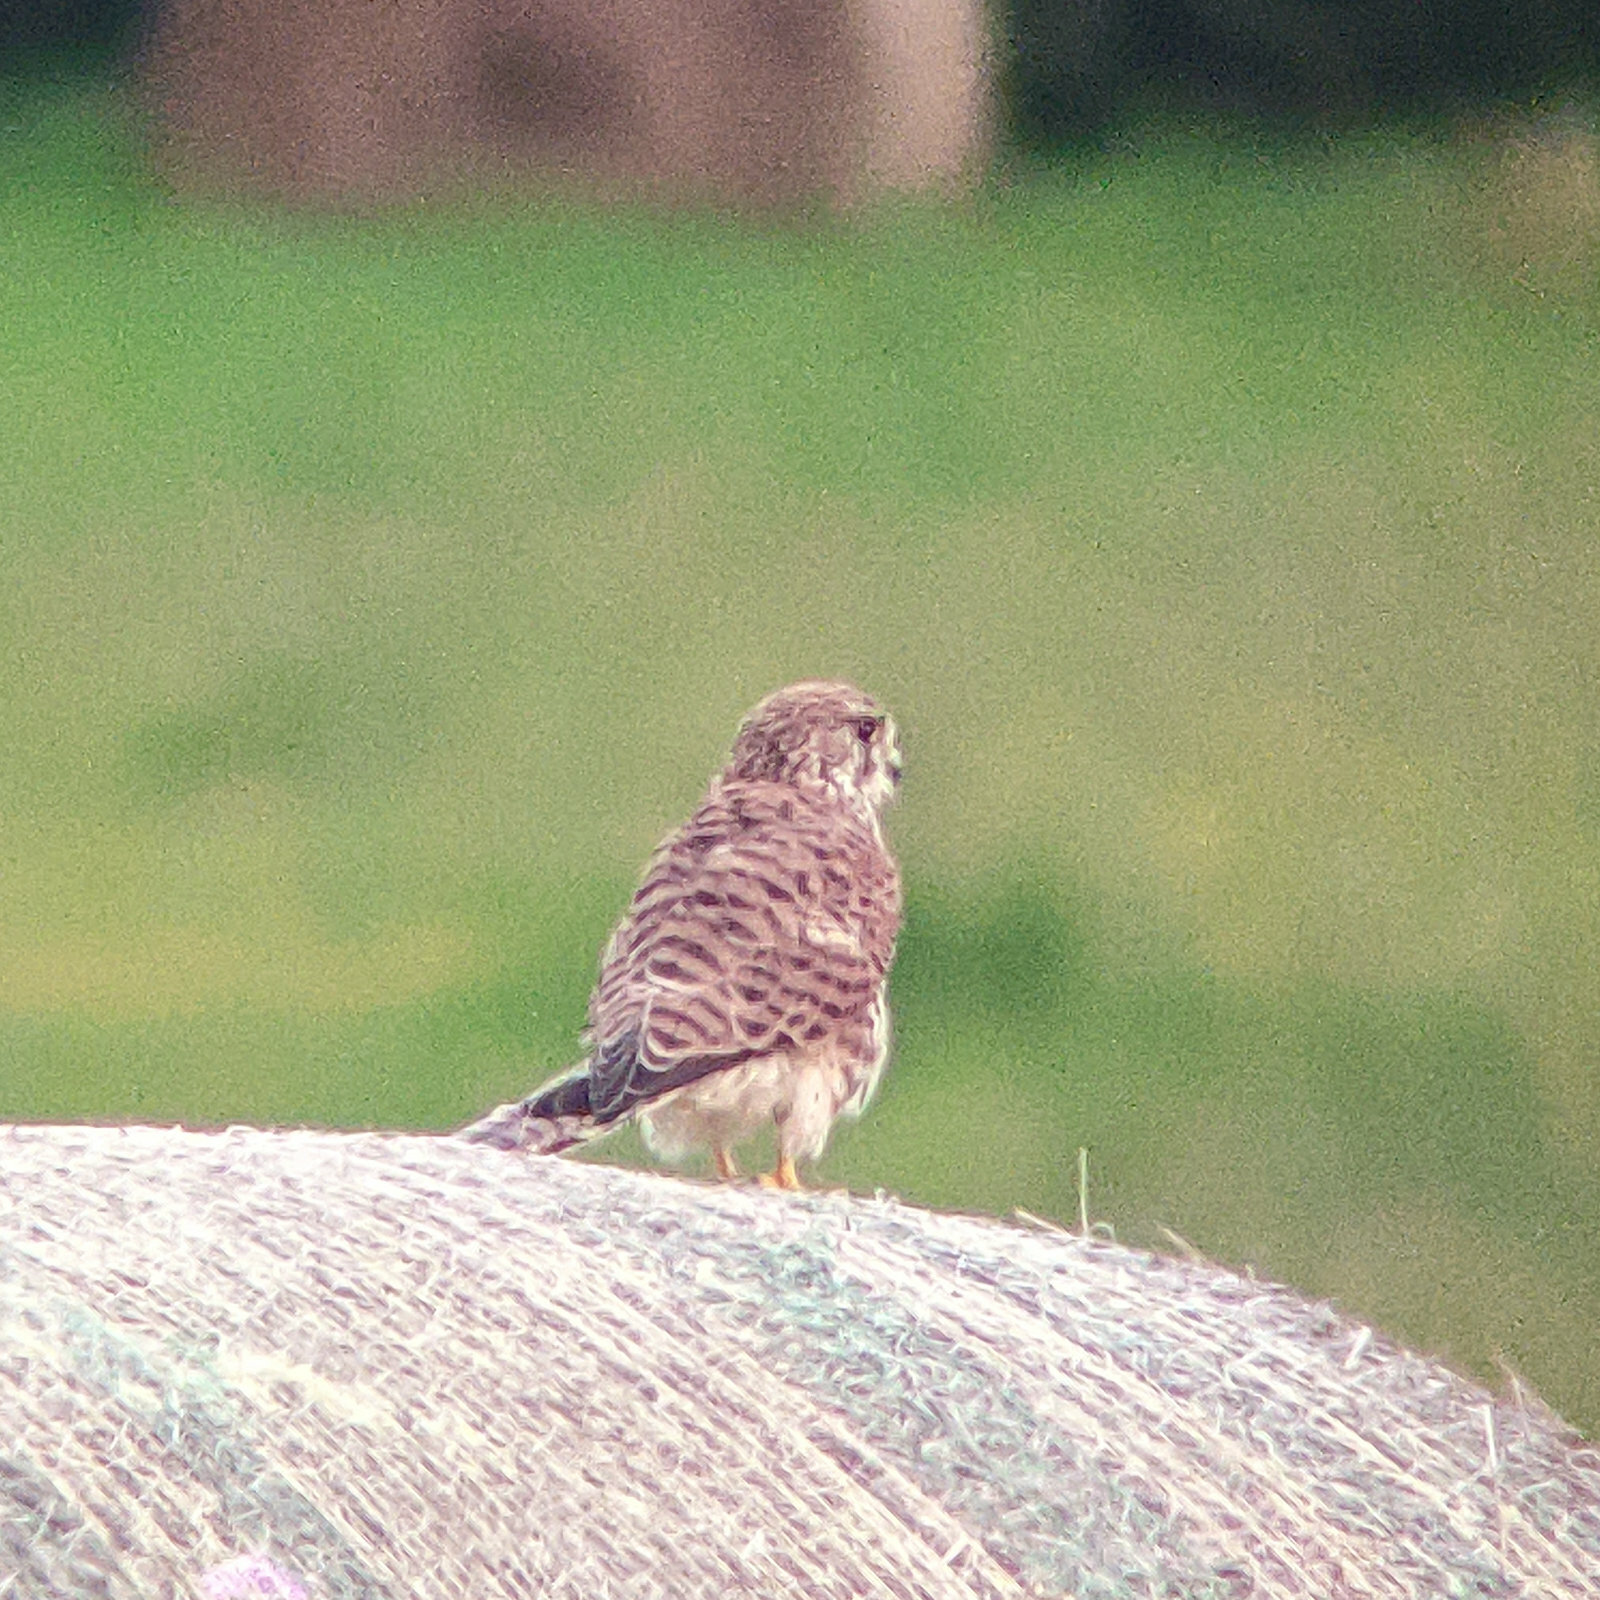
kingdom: Animalia
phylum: Chordata
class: Aves
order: Falconiformes
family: Falconidae
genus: Falco
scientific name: Falco tinnunculus
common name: Common kestrel
